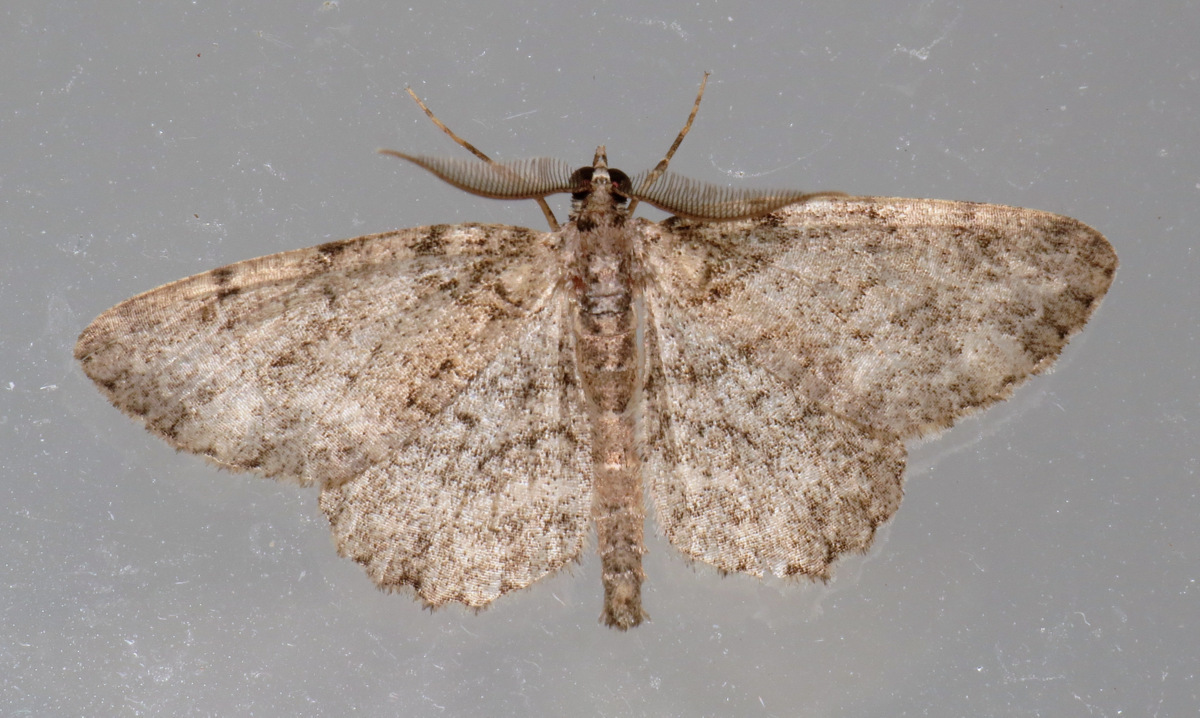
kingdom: Animalia
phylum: Arthropoda
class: Insecta
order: Lepidoptera
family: Geometridae
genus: Protoboarmia
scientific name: Protoboarmia porcelaria
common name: Porcelain gray
